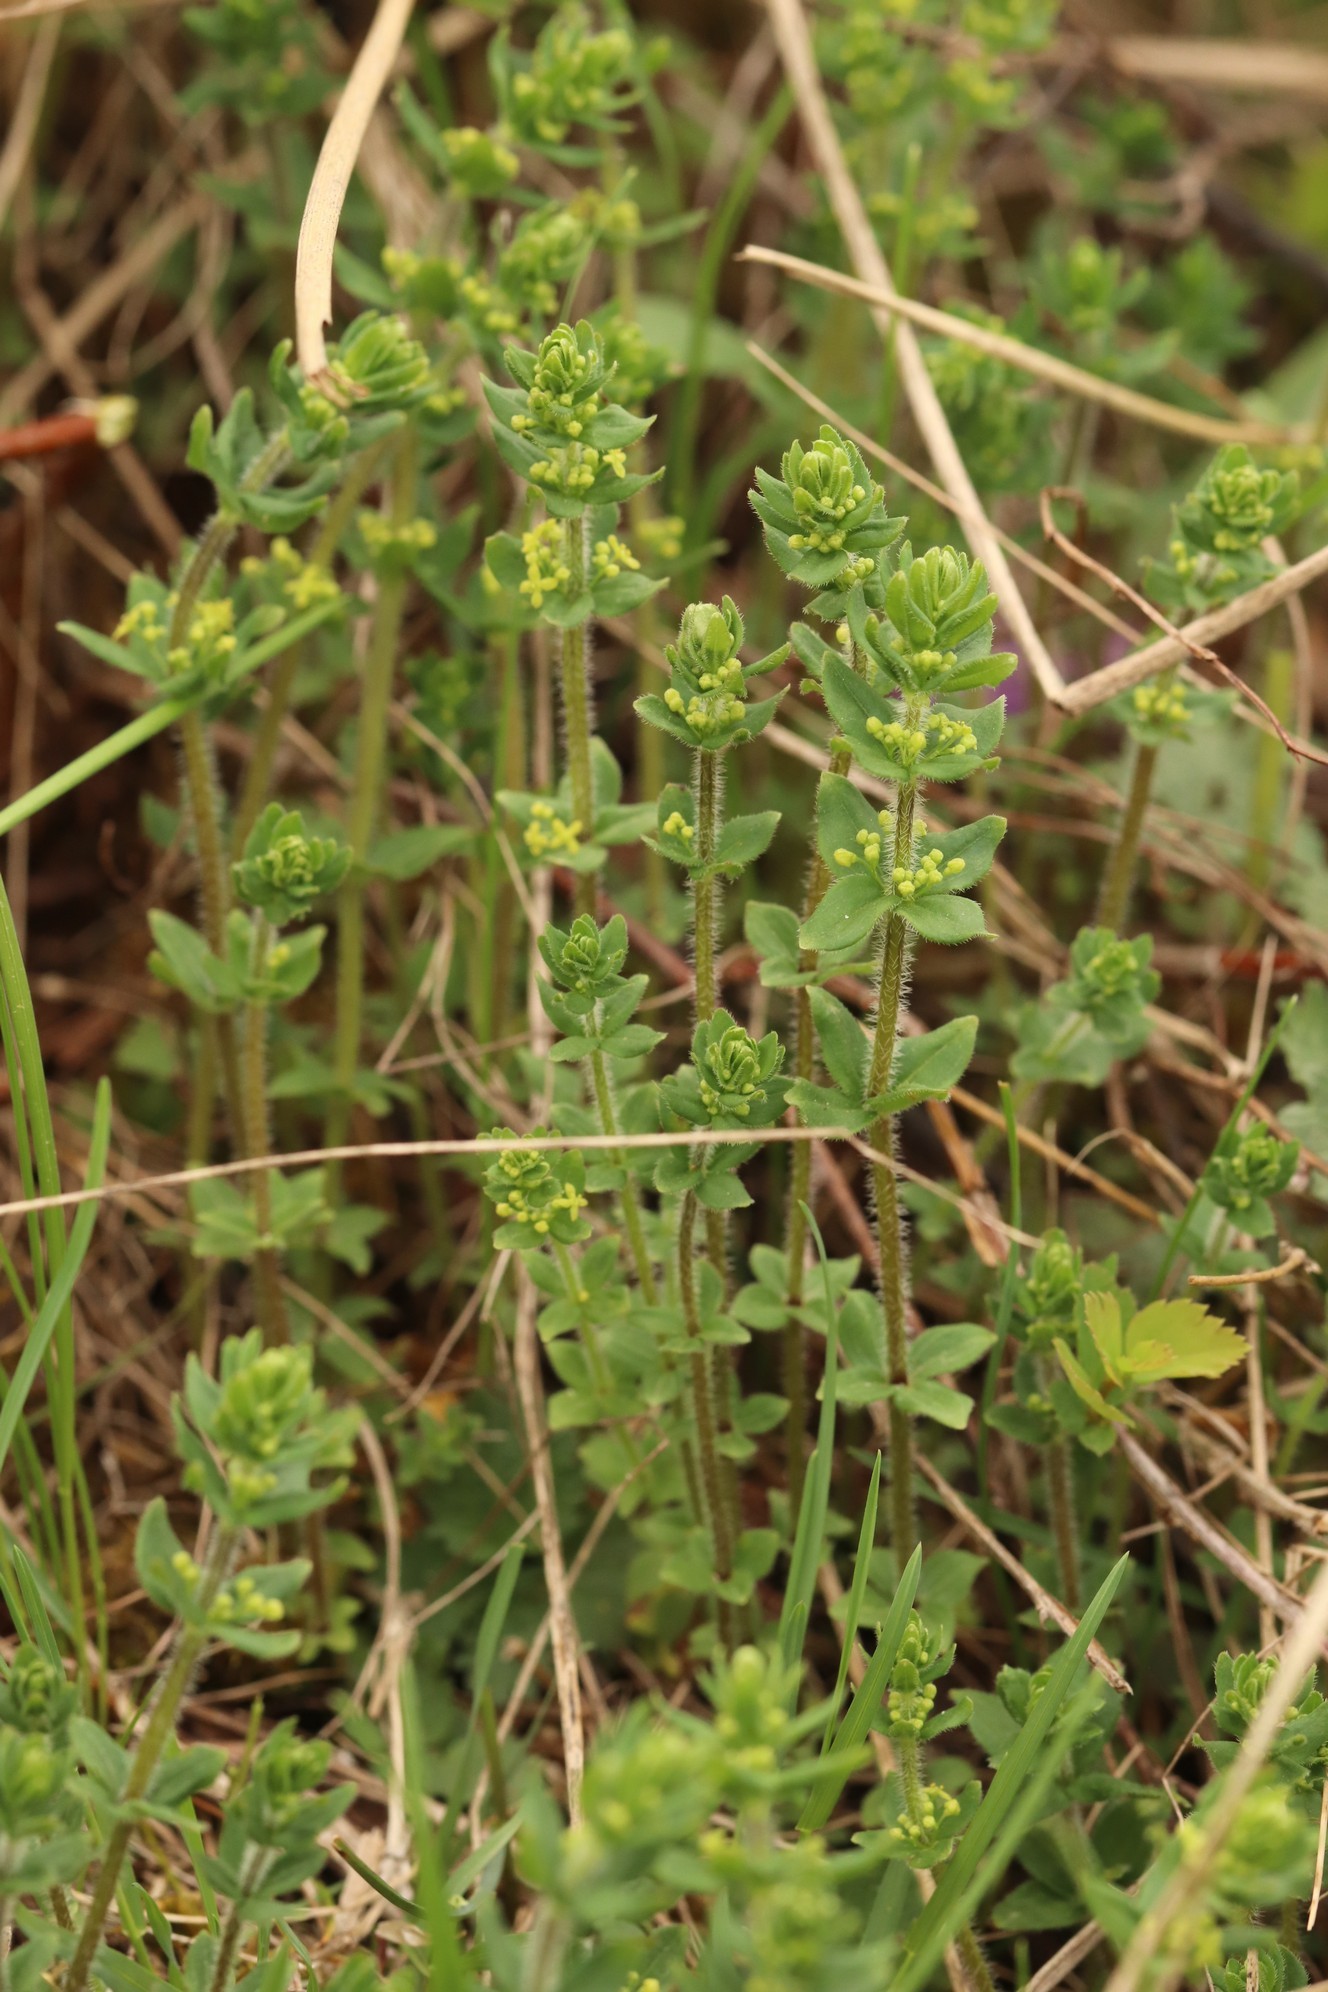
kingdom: Plantae
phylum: Tracheophyta
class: Magnoliopsida
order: Gentianales
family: Rubiaceae
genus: Cruciata
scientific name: Cruciata glabra
